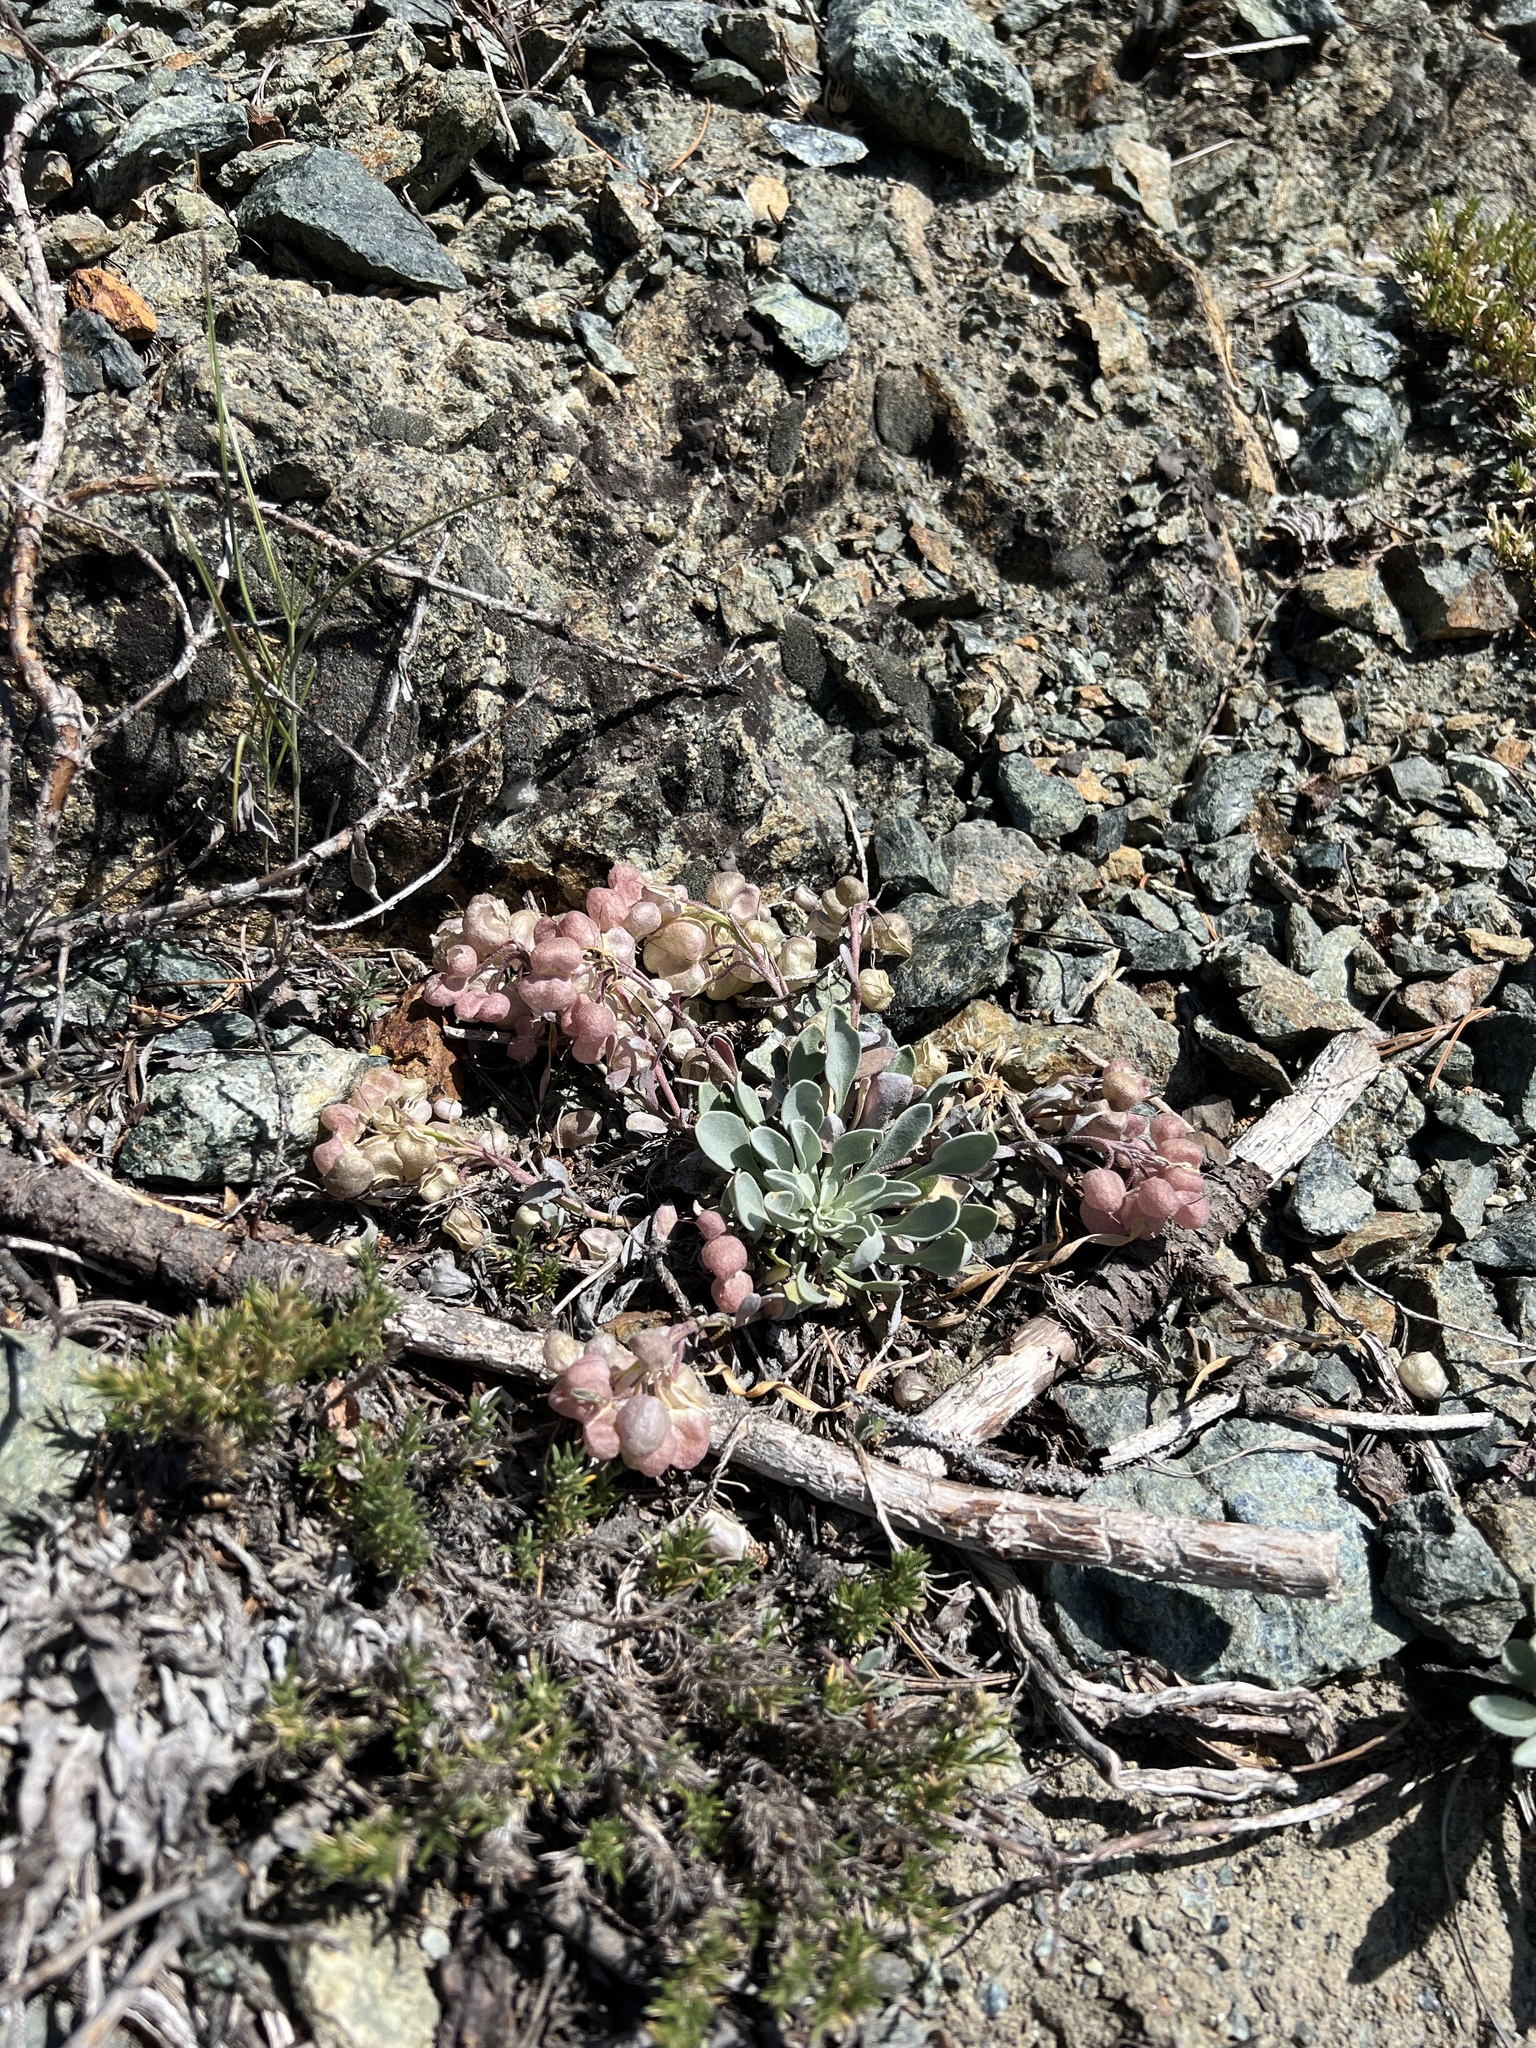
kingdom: Plantae
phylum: Tracheophyta
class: Magnoliopsida
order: Brassicales
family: Brassicaceae
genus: Physaria
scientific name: Physaria alpestris
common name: Washington twinpod
